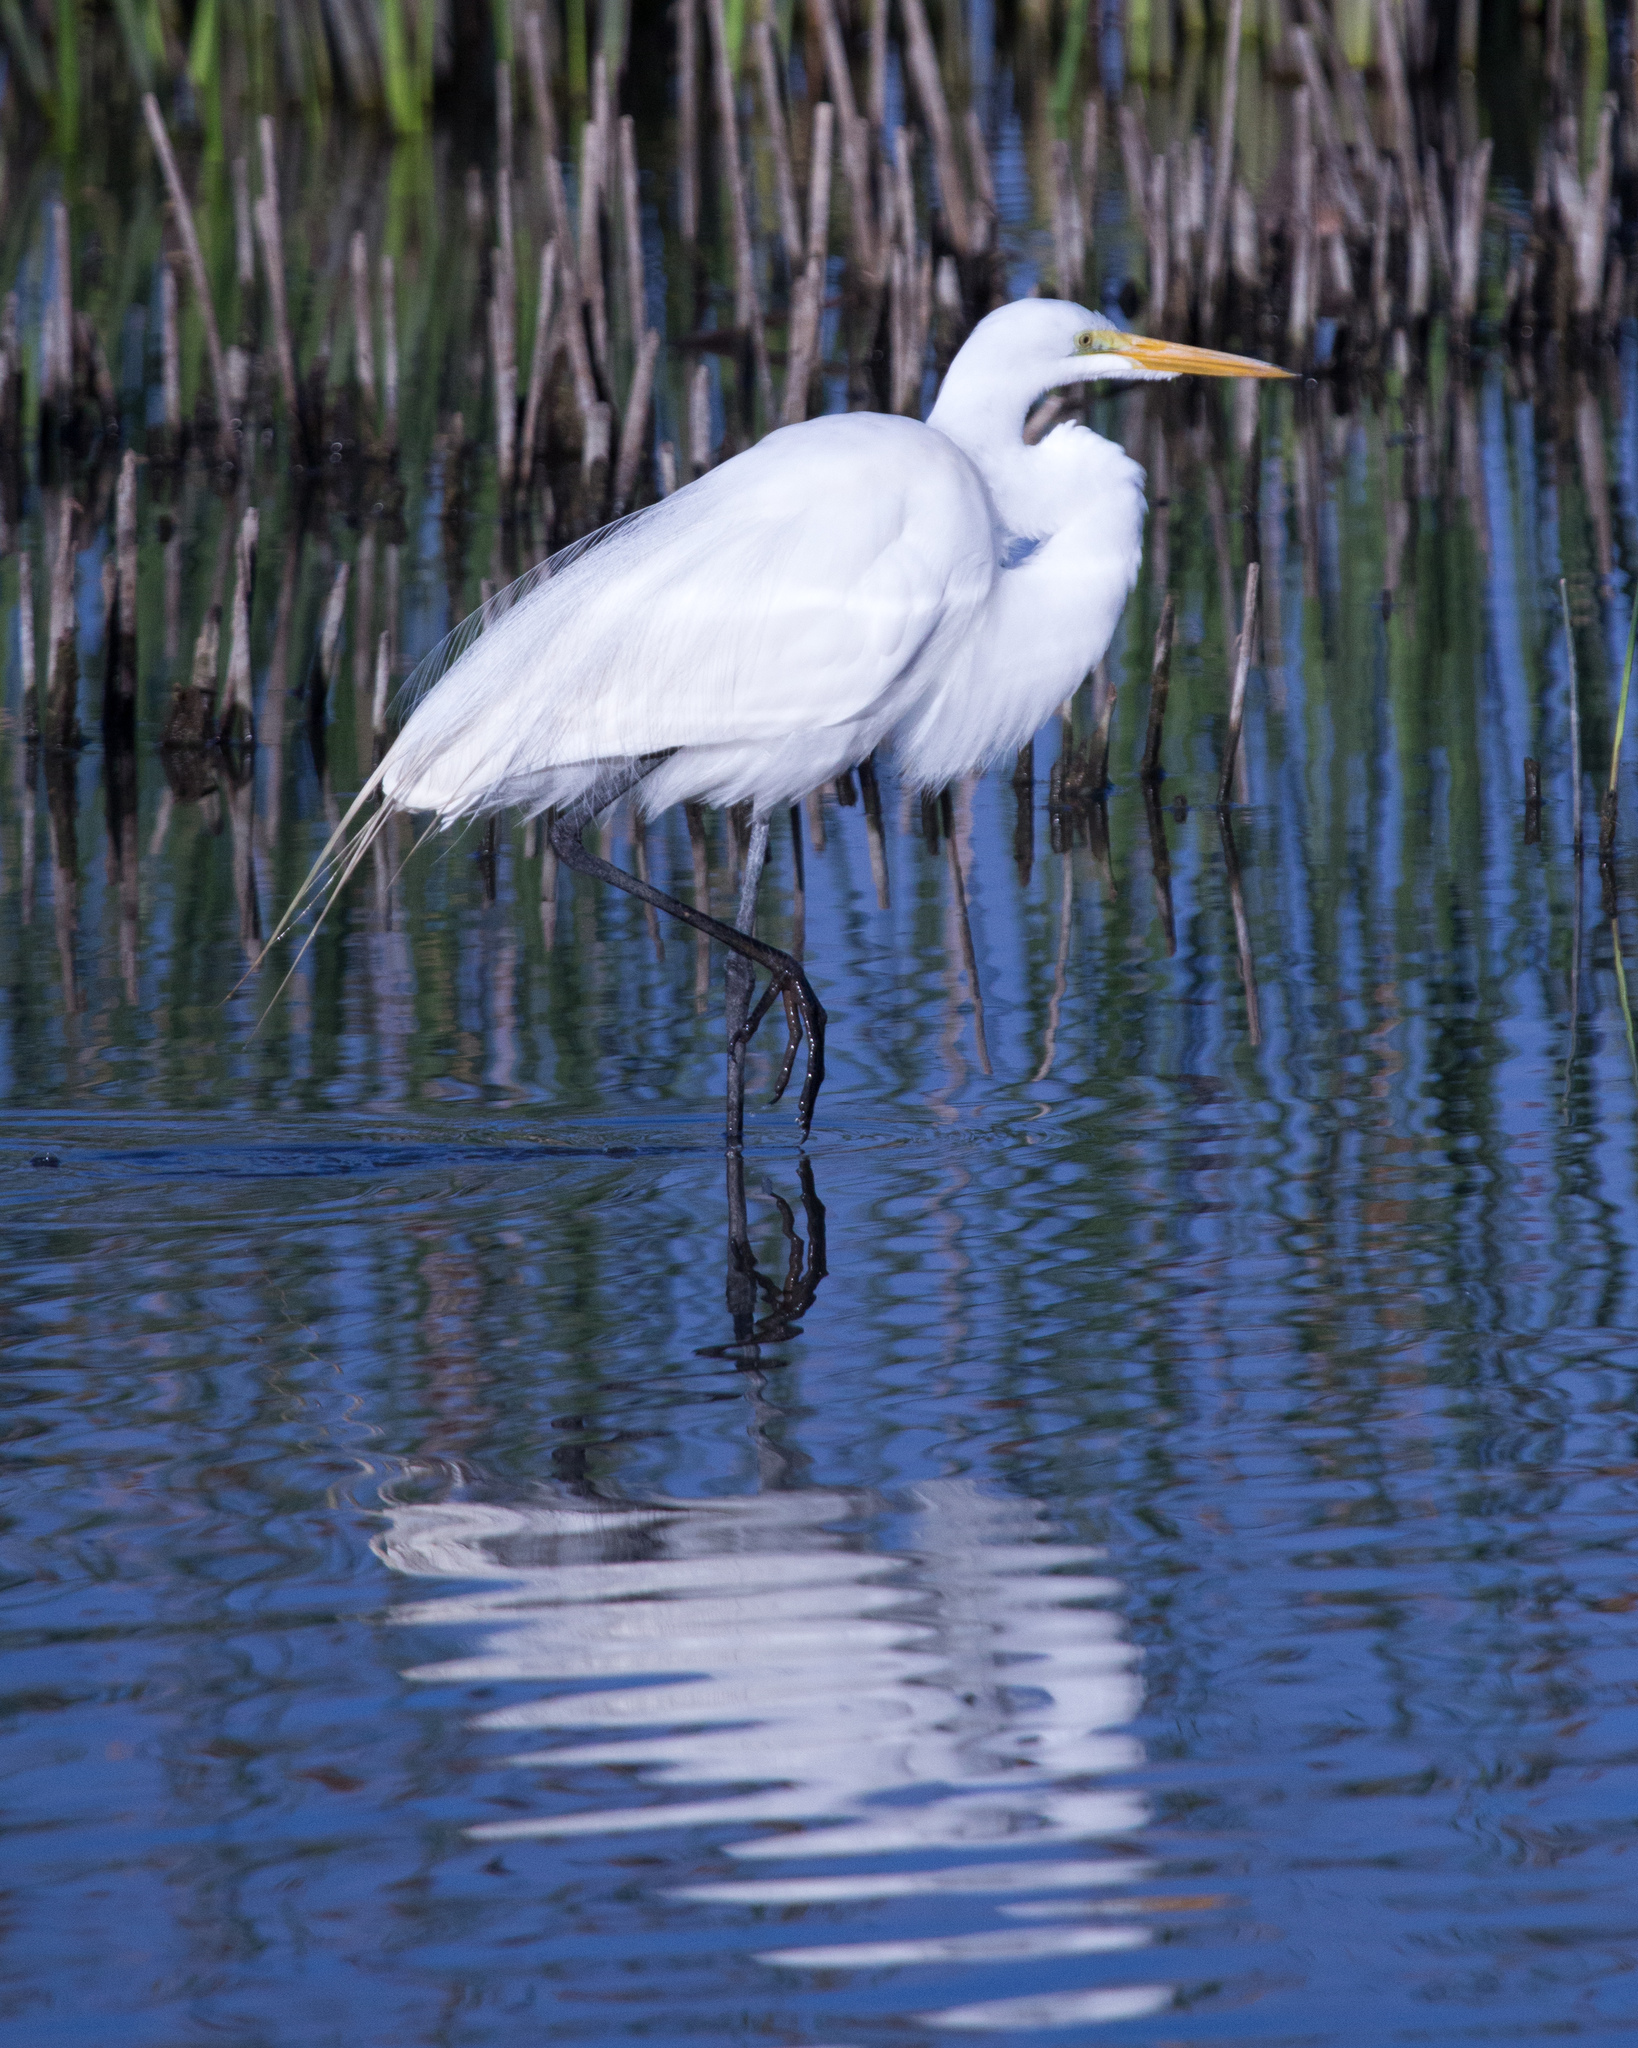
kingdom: Animalia
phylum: Chordata
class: Aves
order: Pelecaniformes
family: Ardeidae
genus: Ardea
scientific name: Ardea alba
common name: Great egret
